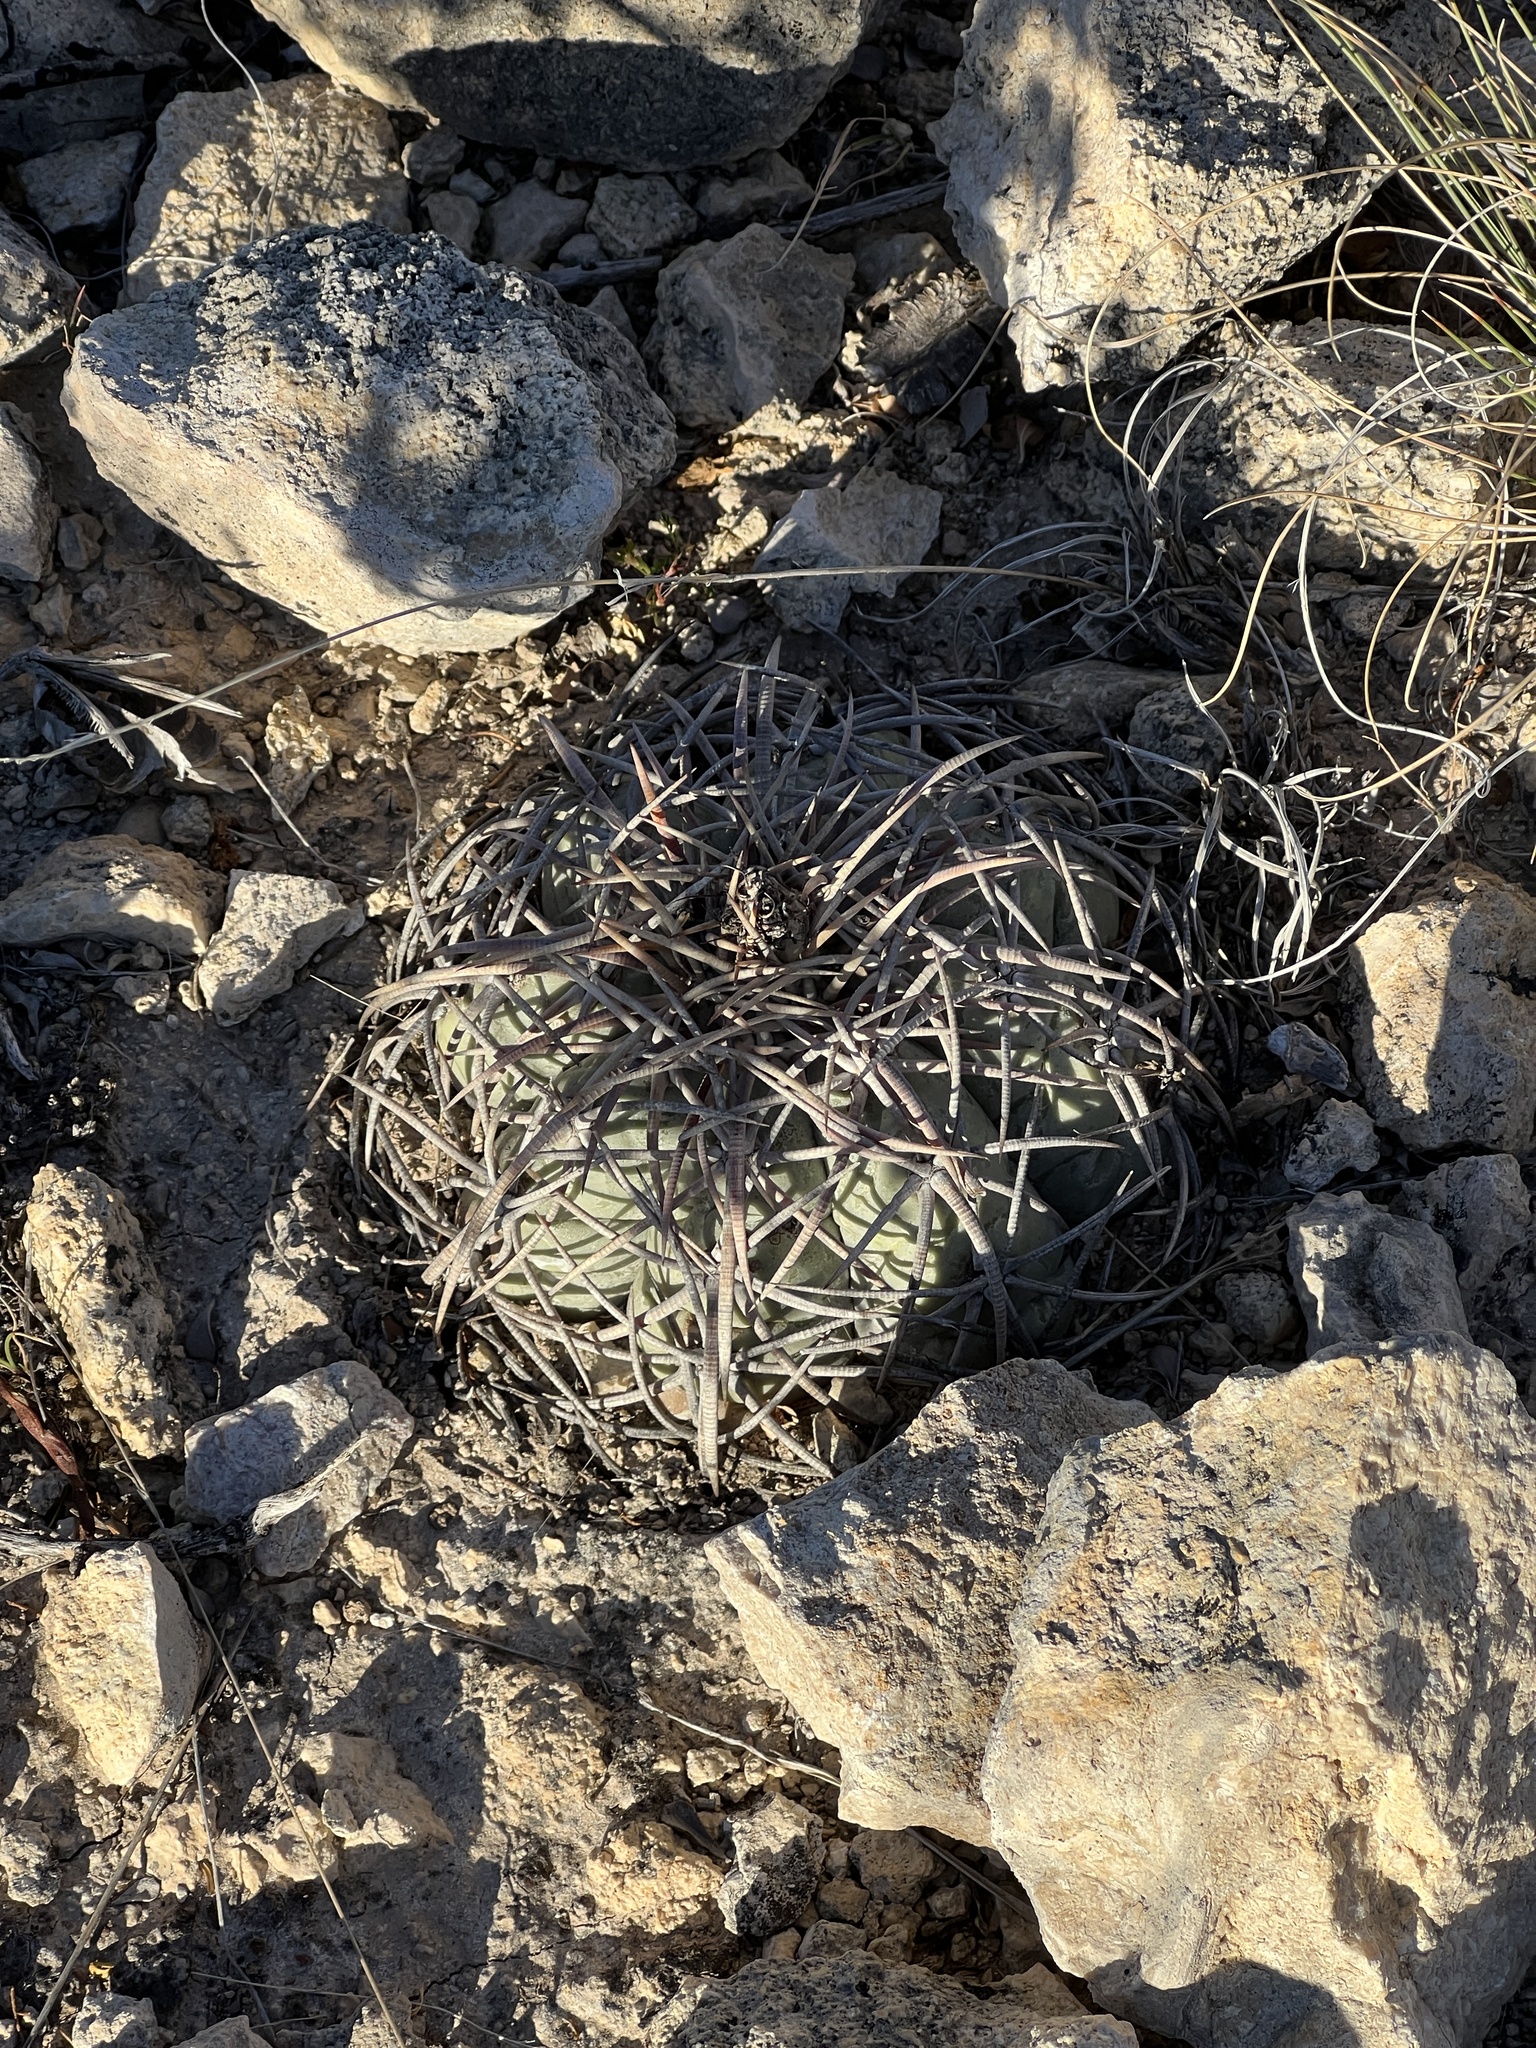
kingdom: Plantae
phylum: Tracheophyta
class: Magnoliopsida
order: Caryophyllales
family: Cactaceae
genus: Echinocactus
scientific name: Echinocactus horizonthalonius
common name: Devilshead
